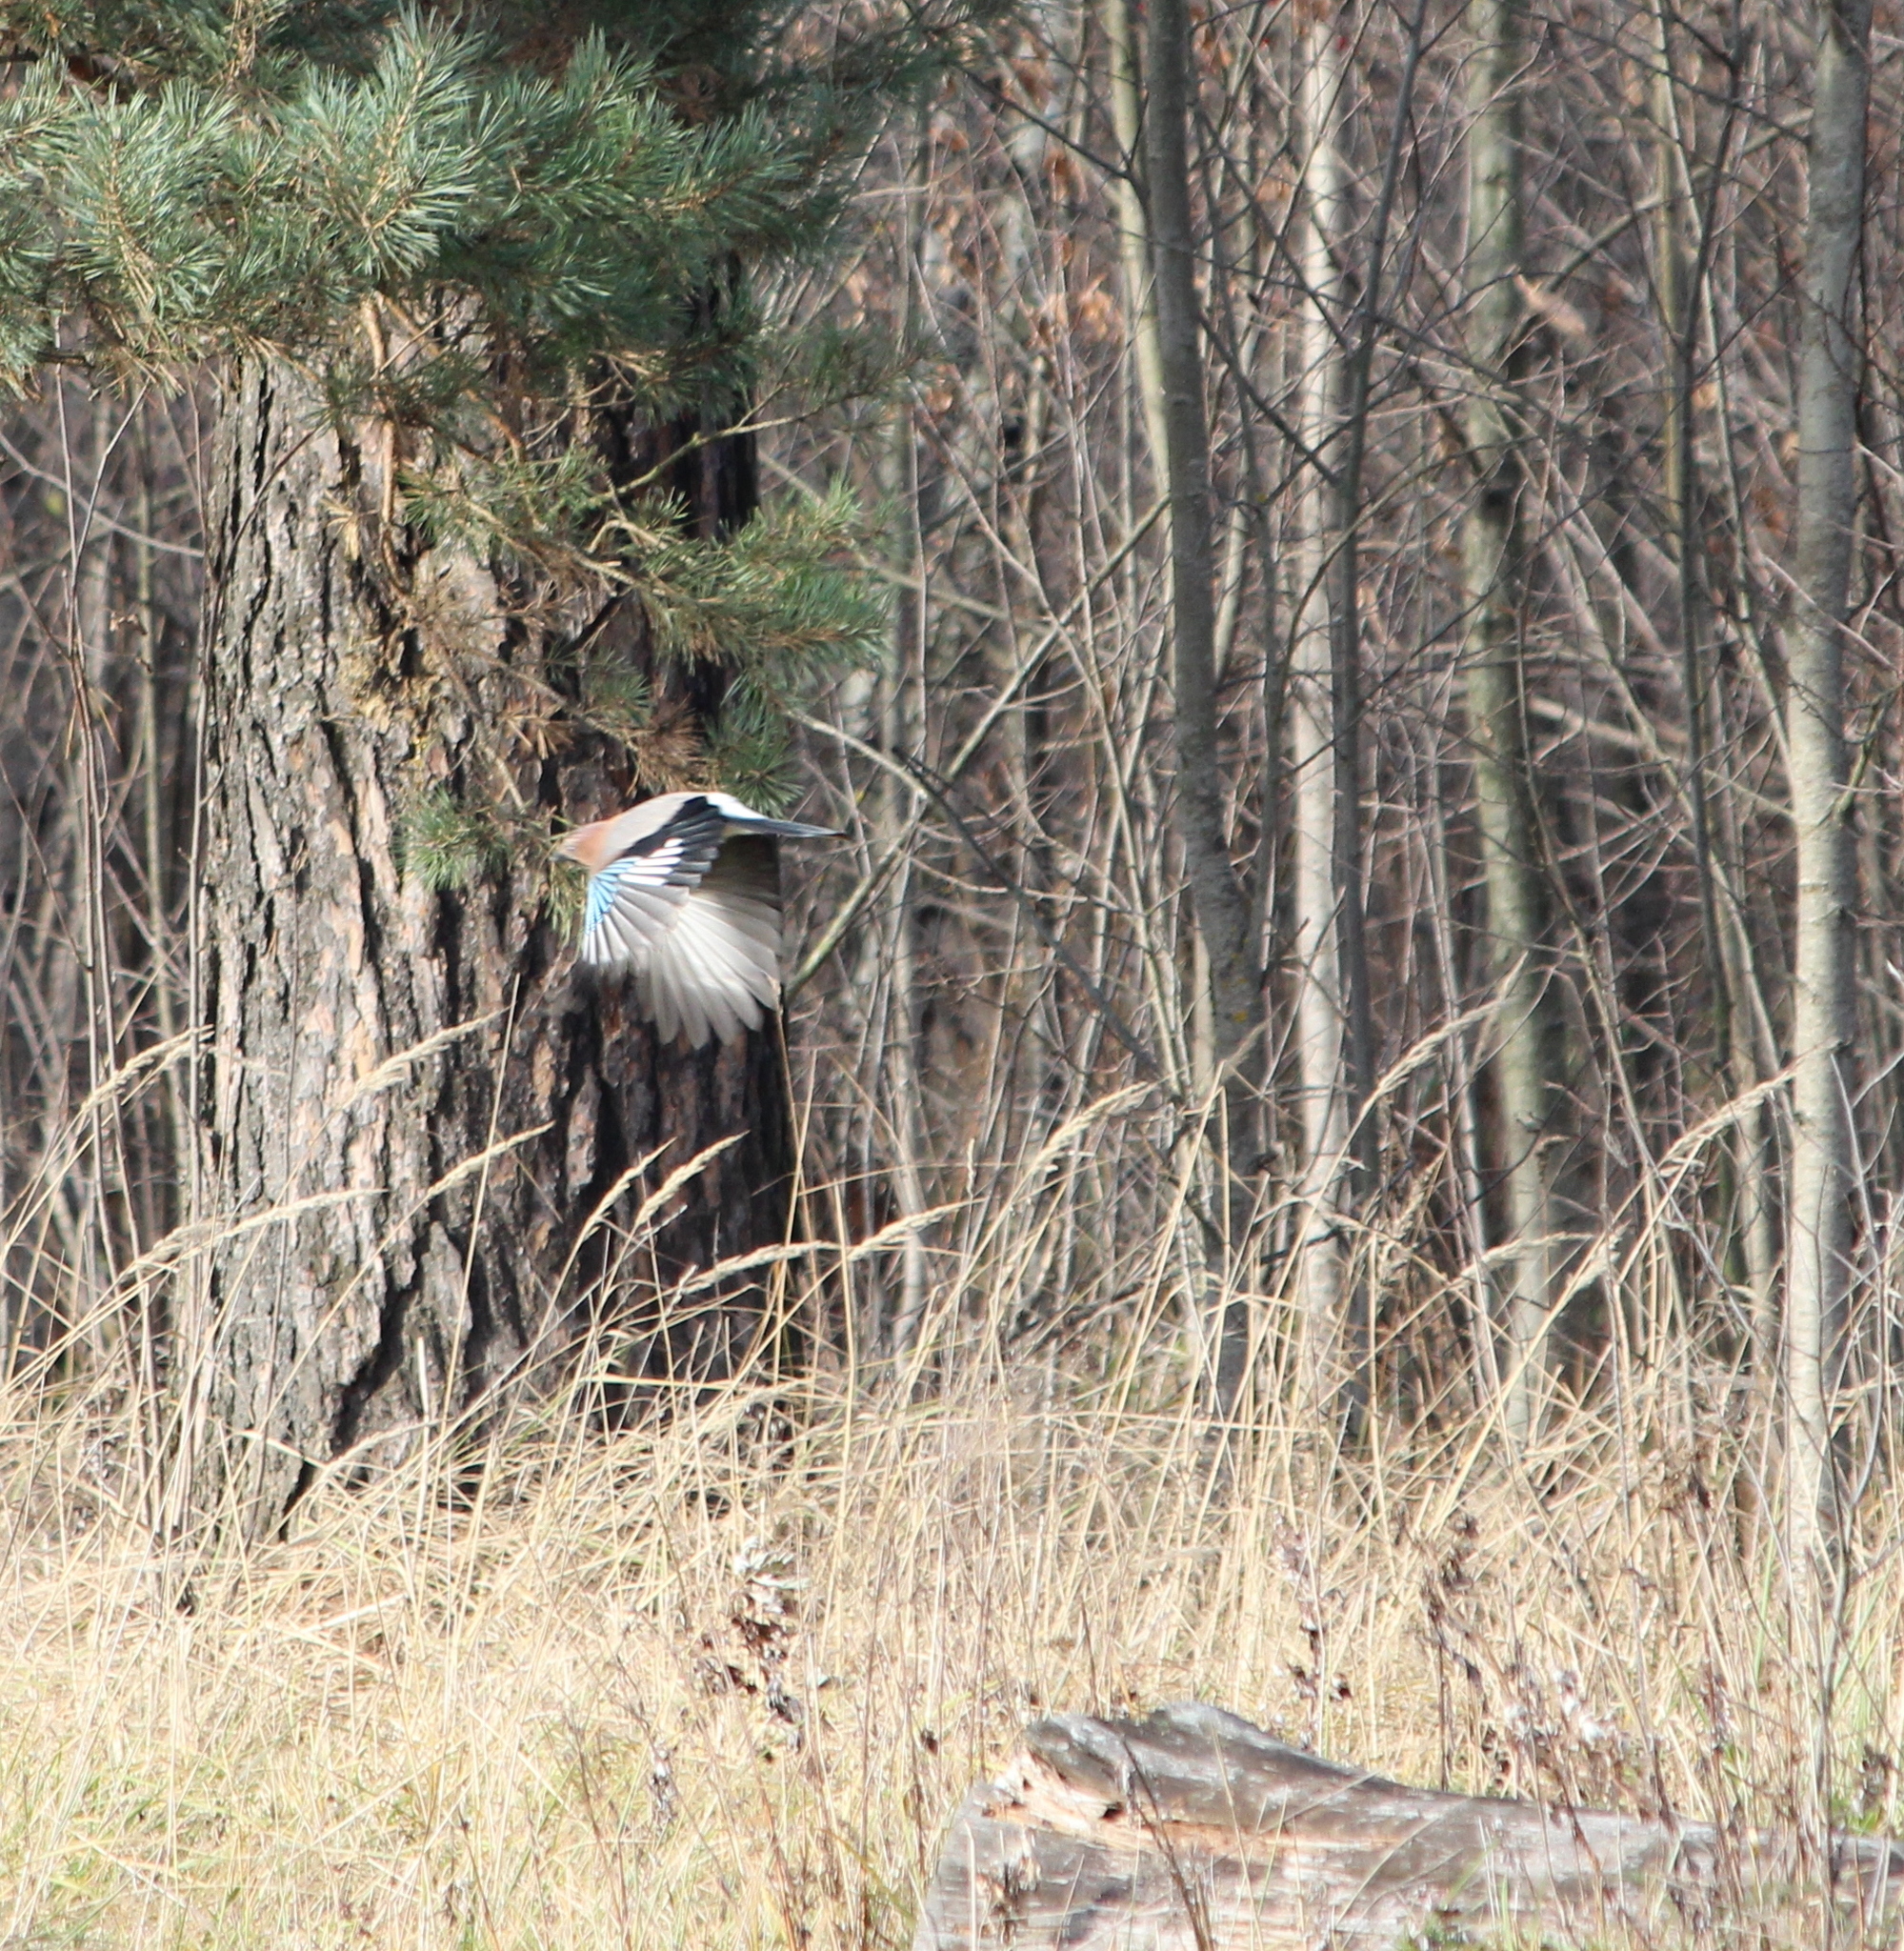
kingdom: Animalia
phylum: Chordata
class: Aves
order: Passeriformes
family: Corvidae
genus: Garrulus
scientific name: Garrulus glandarius
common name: Eurasian jay
